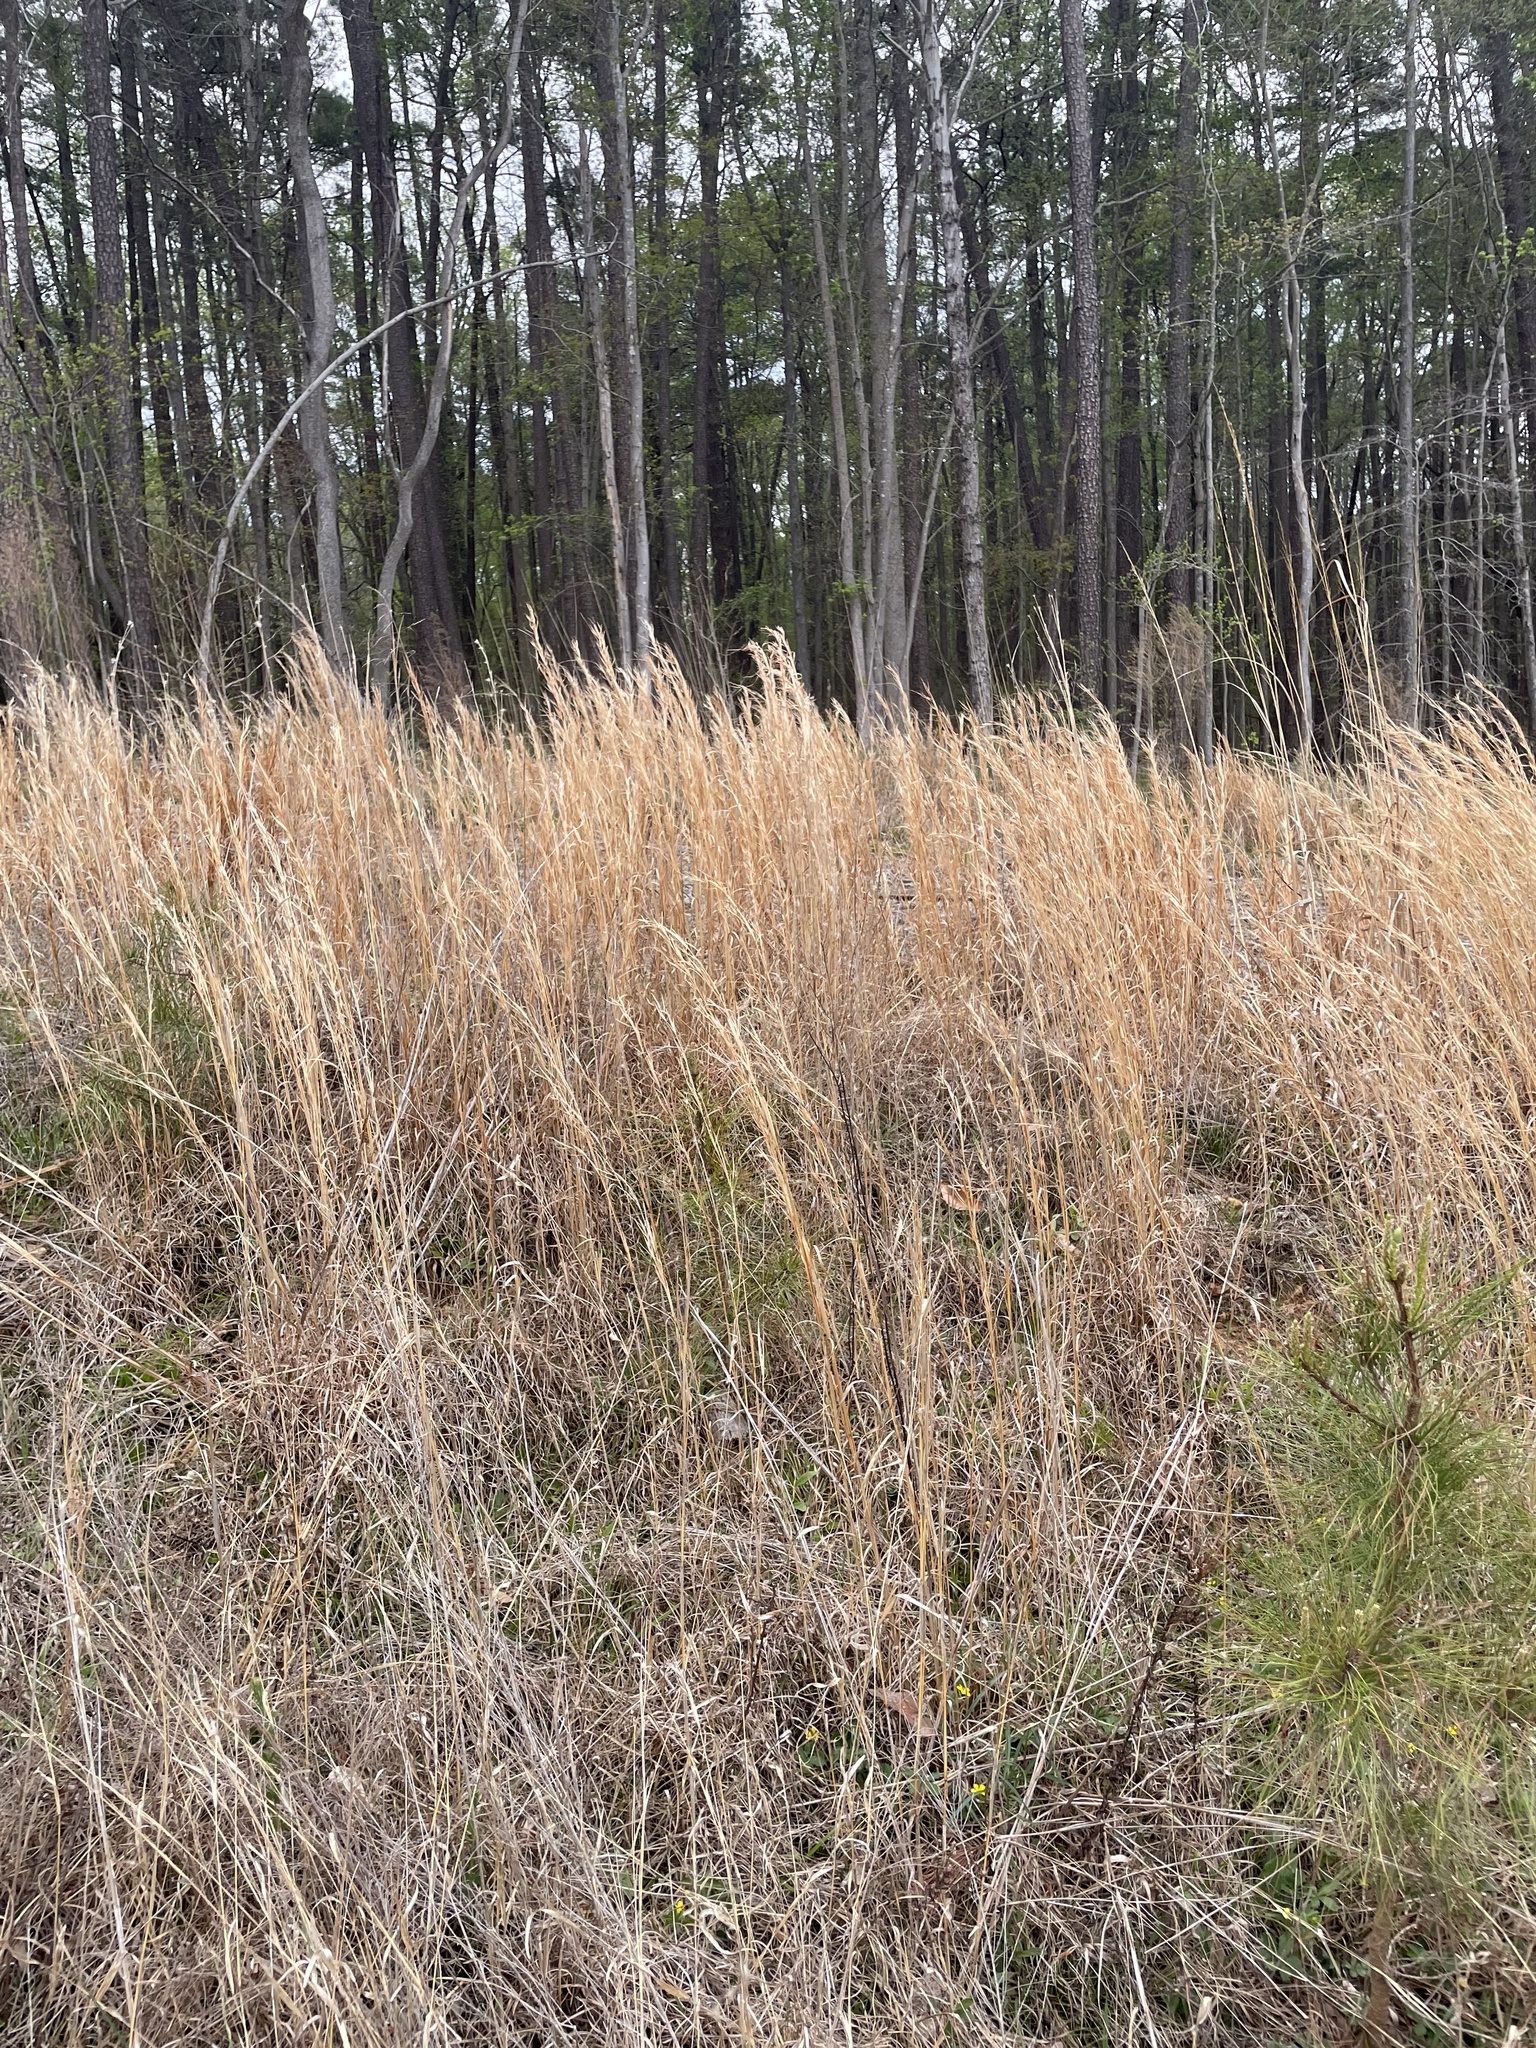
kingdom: Plantae
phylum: Tracheophyta
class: Liliopsida
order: Poales
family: Poaceae
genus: Andropogon
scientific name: Andropogon virginicus
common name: Broomsedge bluestem
